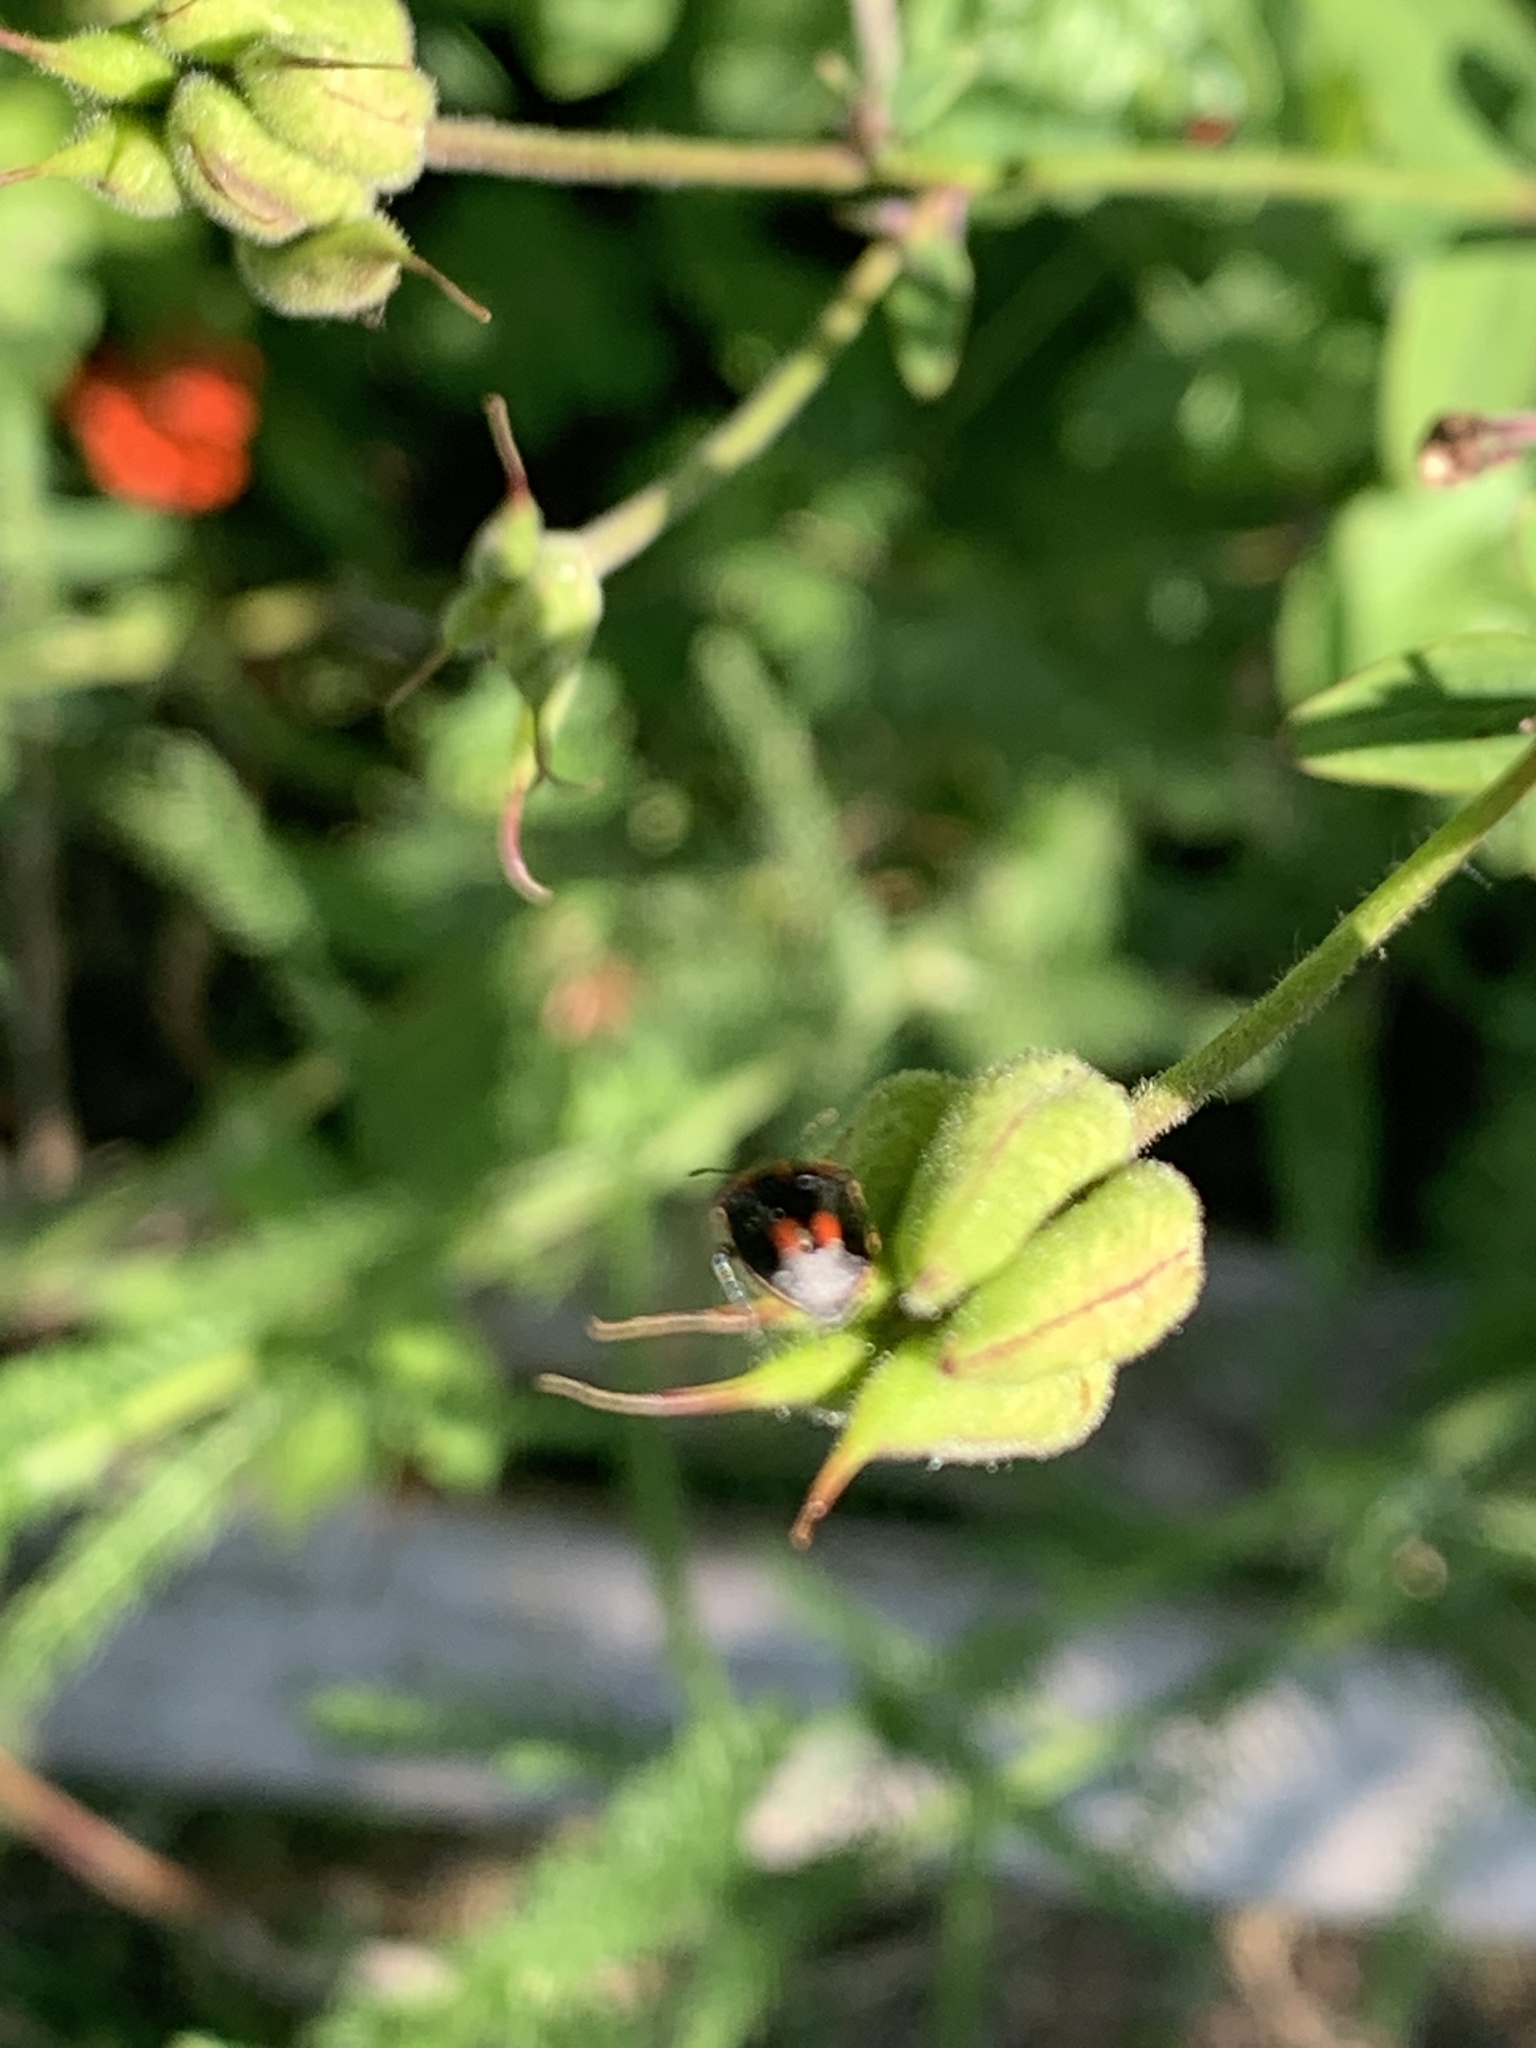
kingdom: Animalia
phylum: Arthropoda
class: Insecta
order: Hemiptera
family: Pentatomidae
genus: Cosmopepla
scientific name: Cosmopepla lintneriana
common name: Twice-stabbed stink bug
